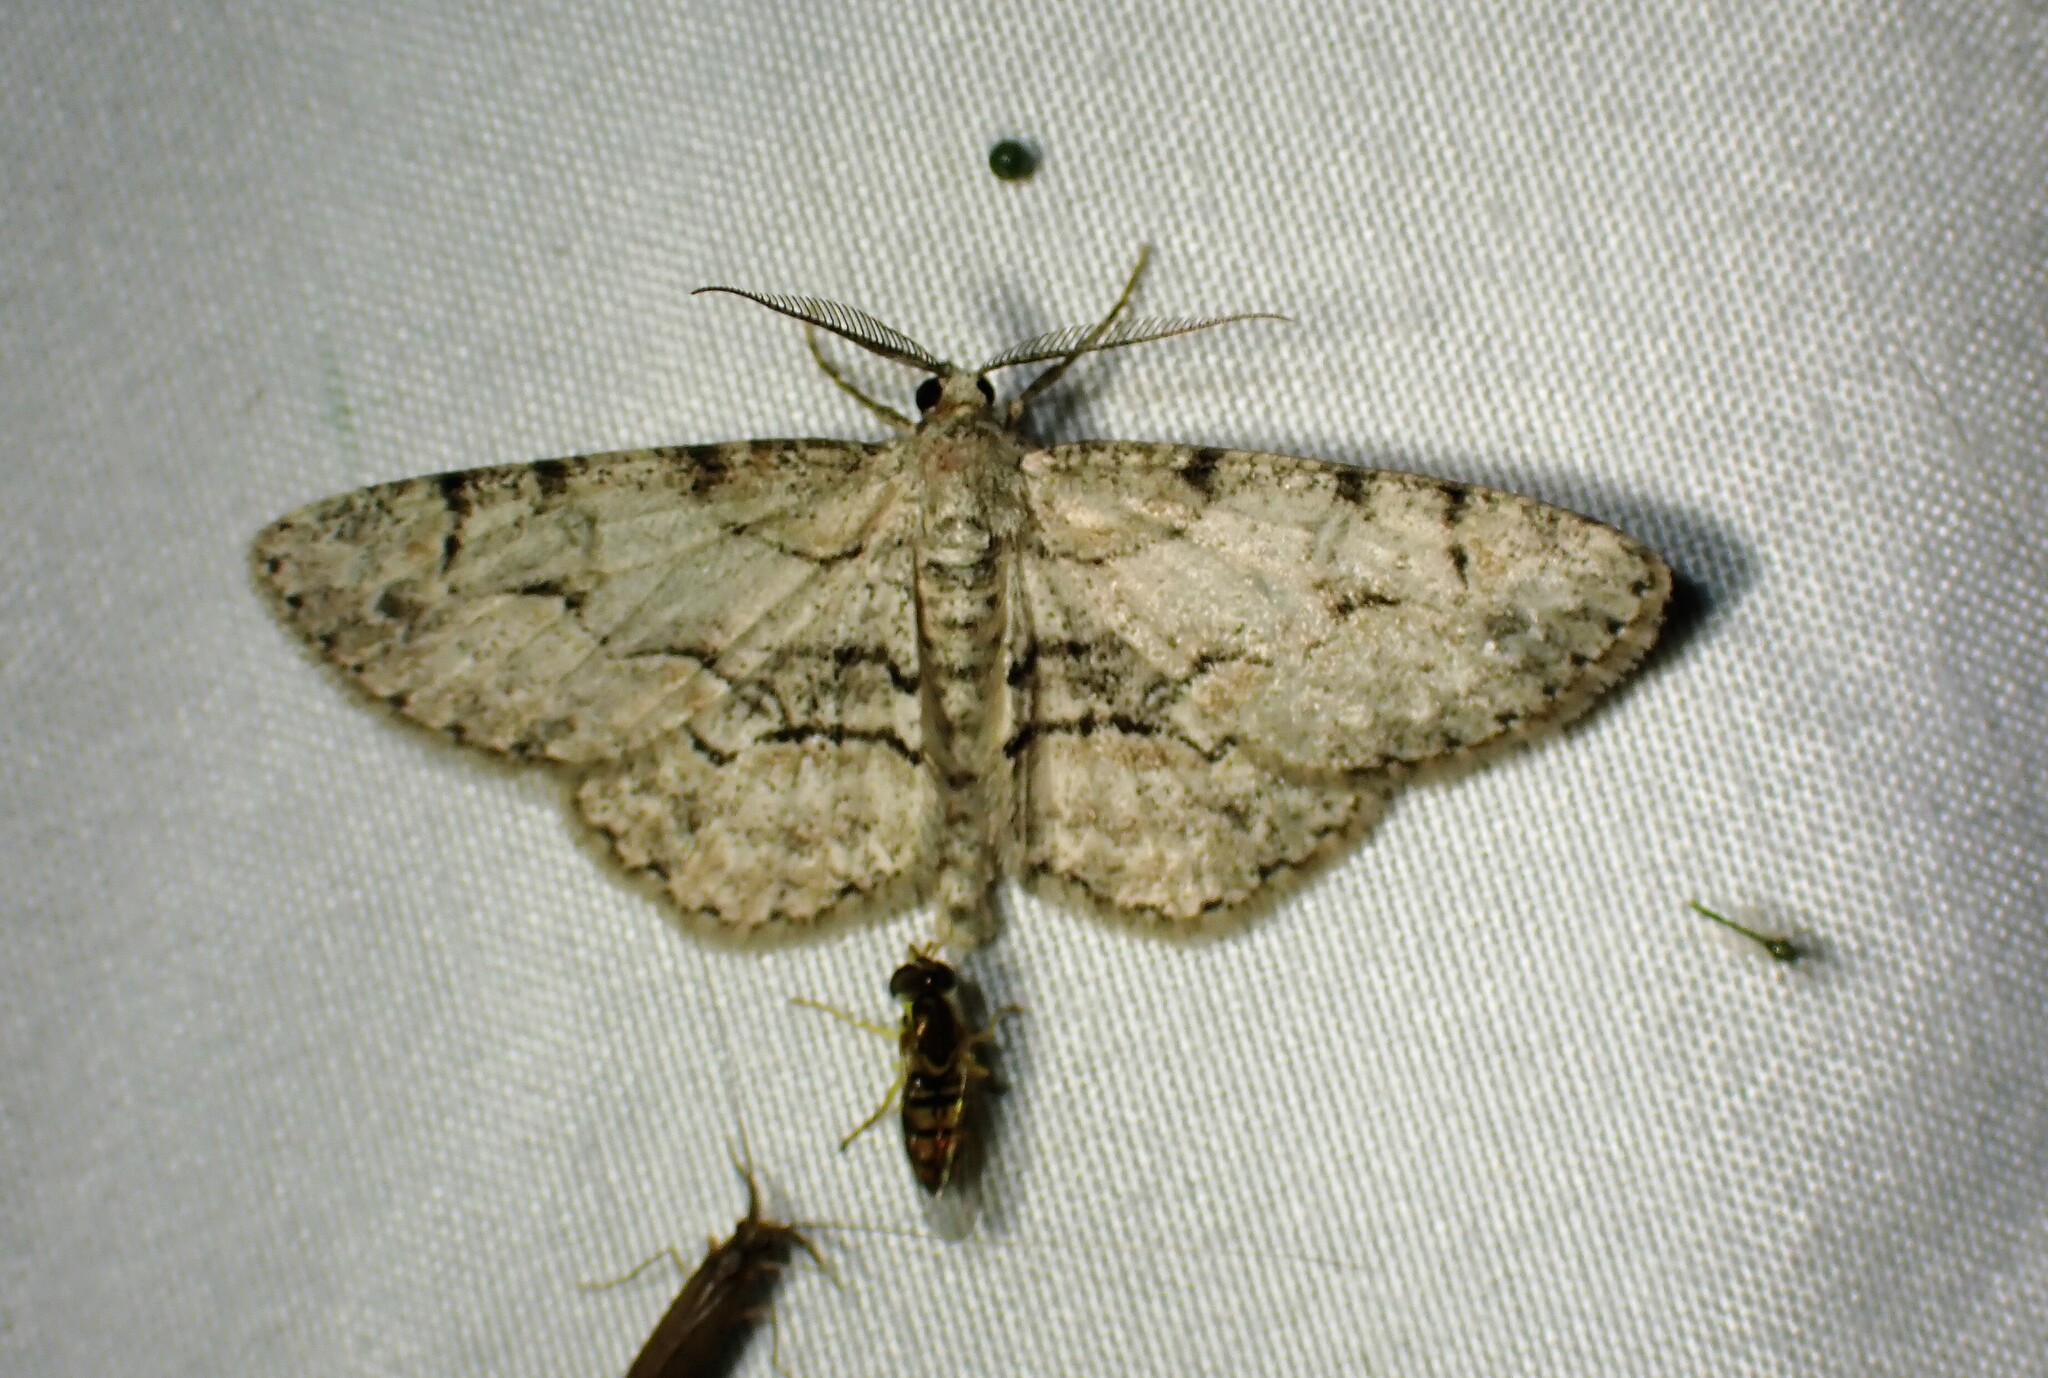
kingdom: Animalia
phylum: Arthropoda
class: Insecta
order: Lepidoptera
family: Geometridae
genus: Iridopsis
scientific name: Iridopsis ephyraria
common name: Pale-winged gray
